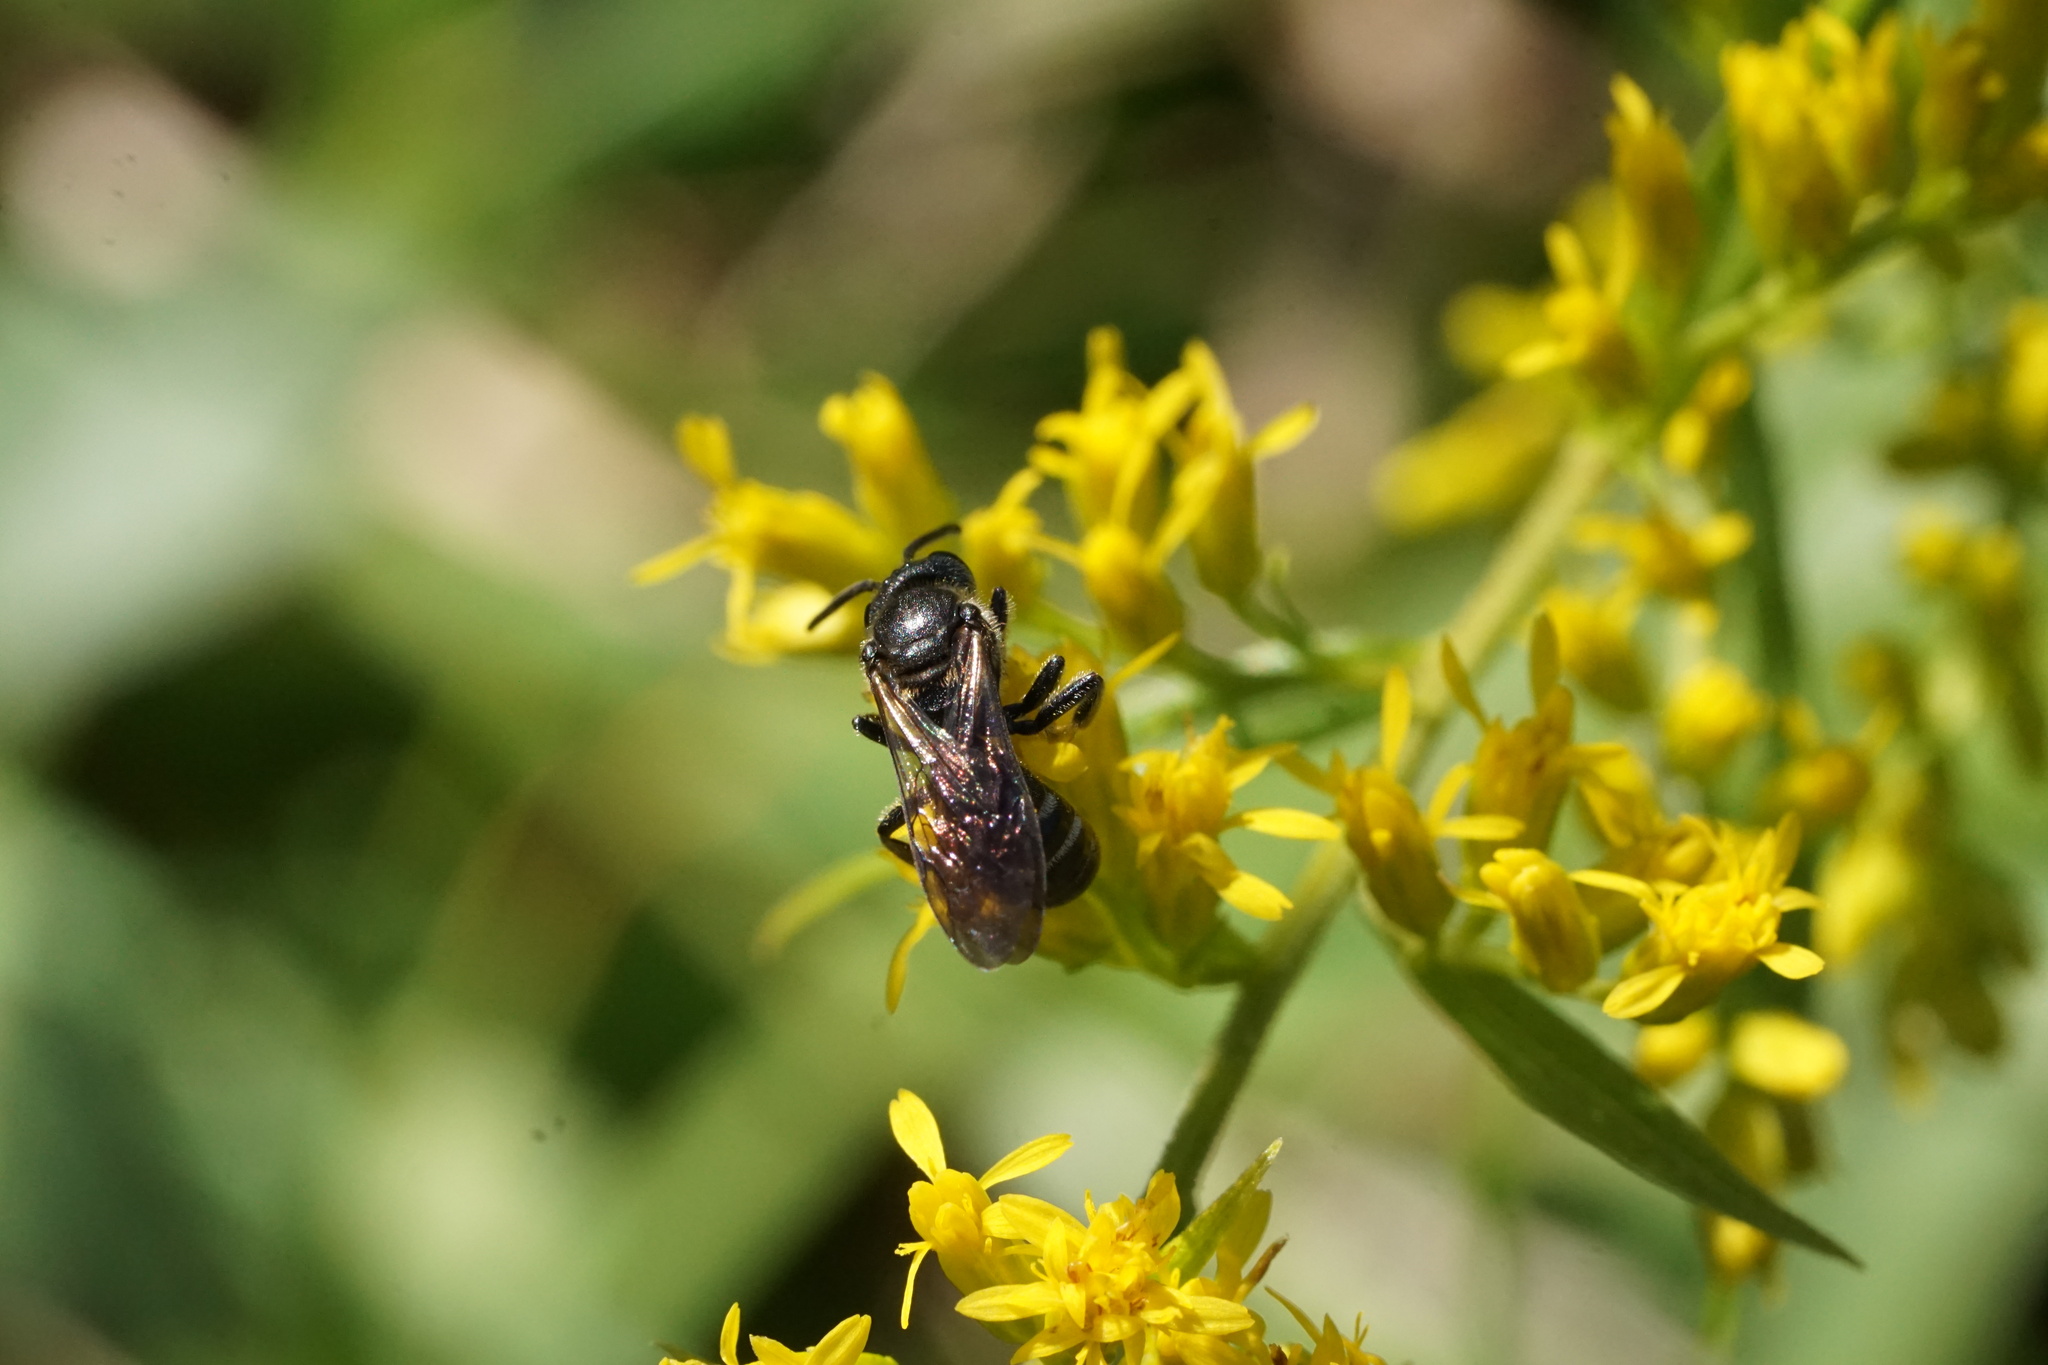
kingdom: Animalia
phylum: Arthropoda
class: Insecta
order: Hymenoptera
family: Halictidae
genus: Lasioglossum
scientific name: Lasioglossum fuscipenne
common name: Brown-winged sweat bee
